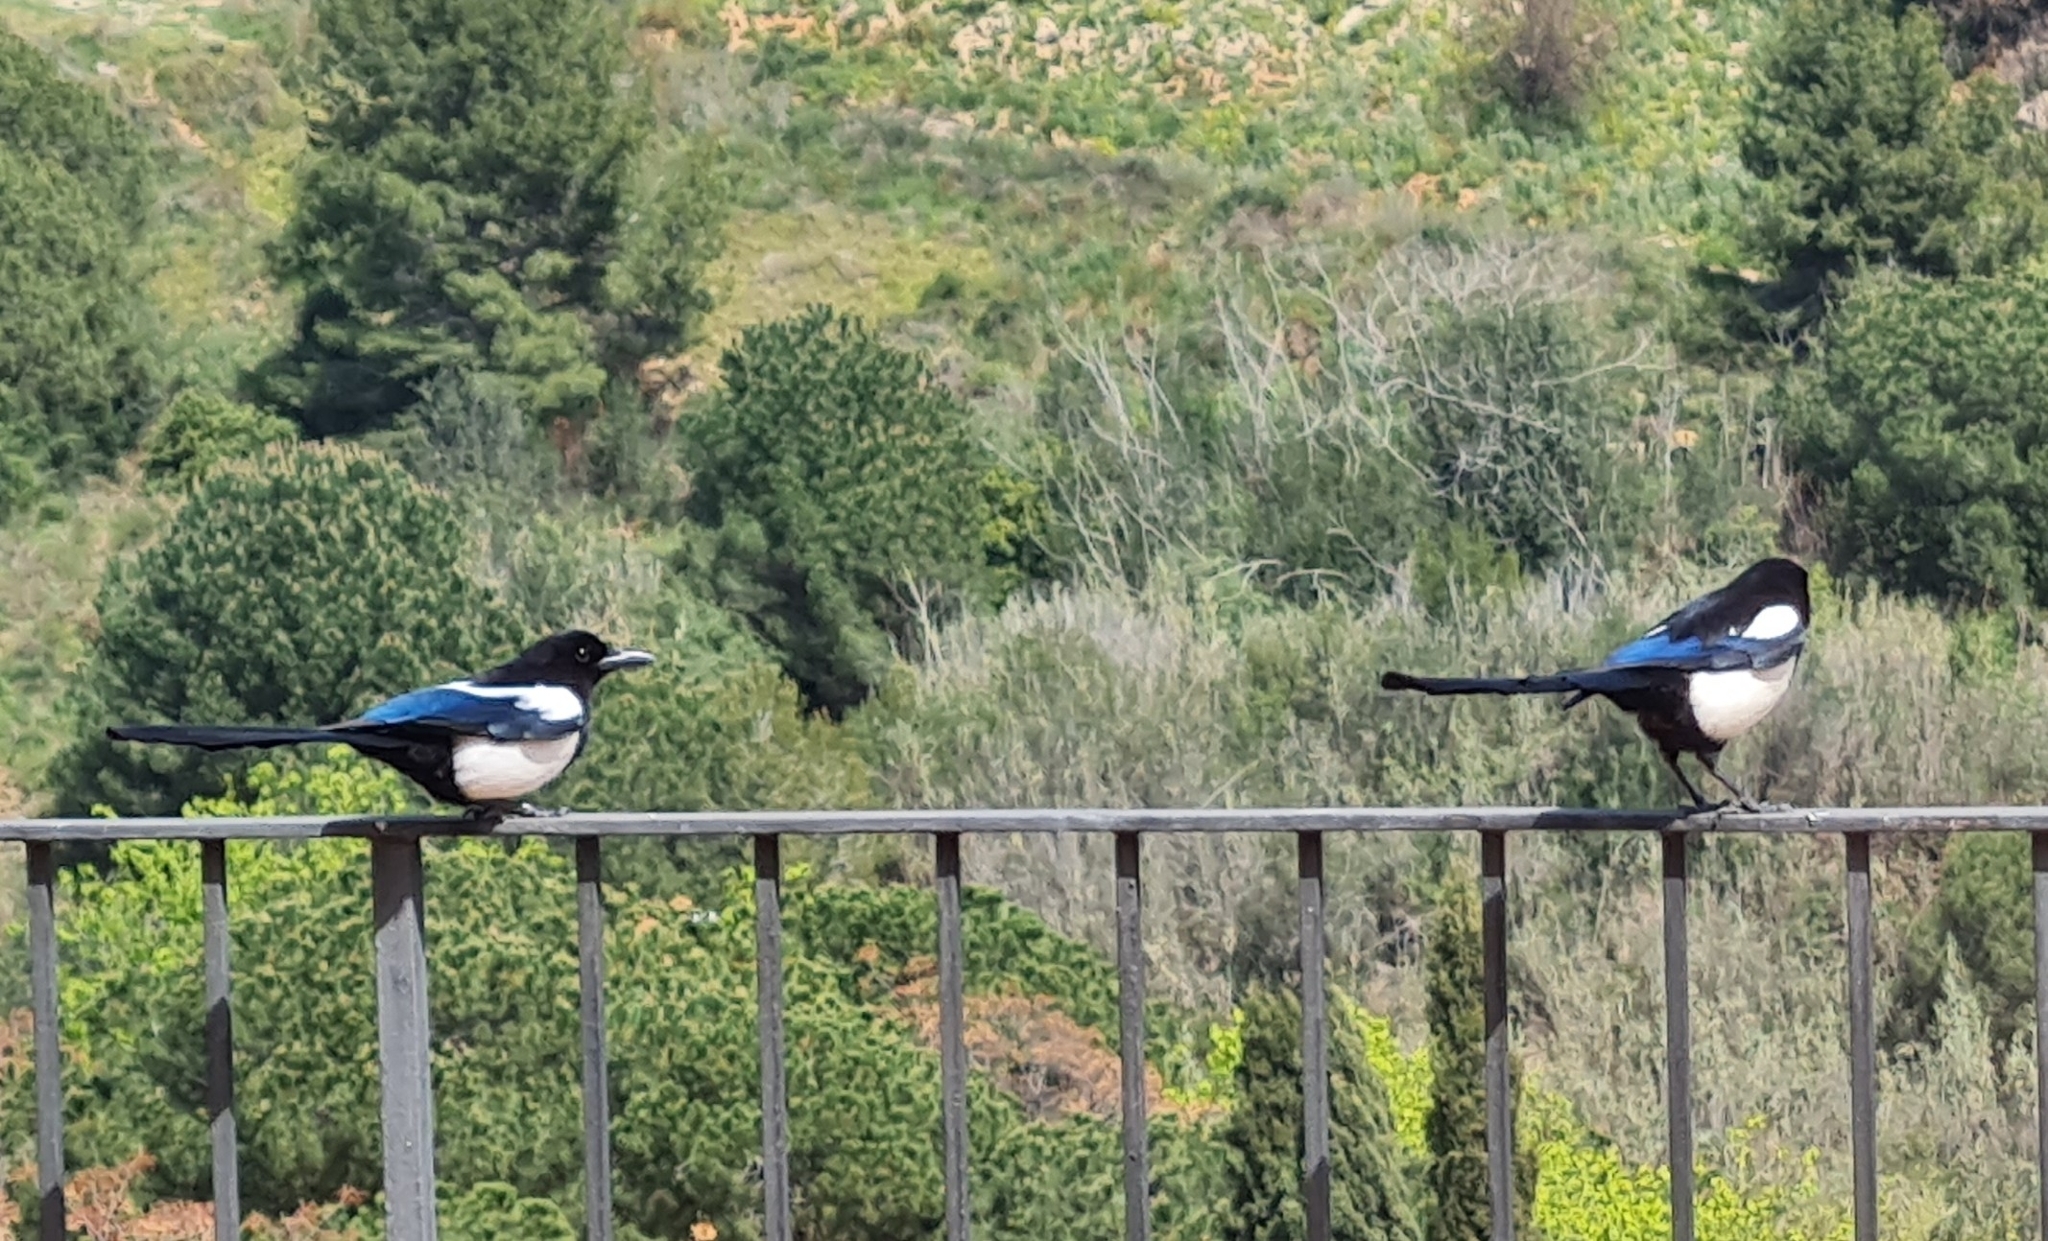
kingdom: Animalia
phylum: Chordata
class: Aves
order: Passeriformes
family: Corvidae
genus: Pica
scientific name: Pica pica
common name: Eurasian magpie
